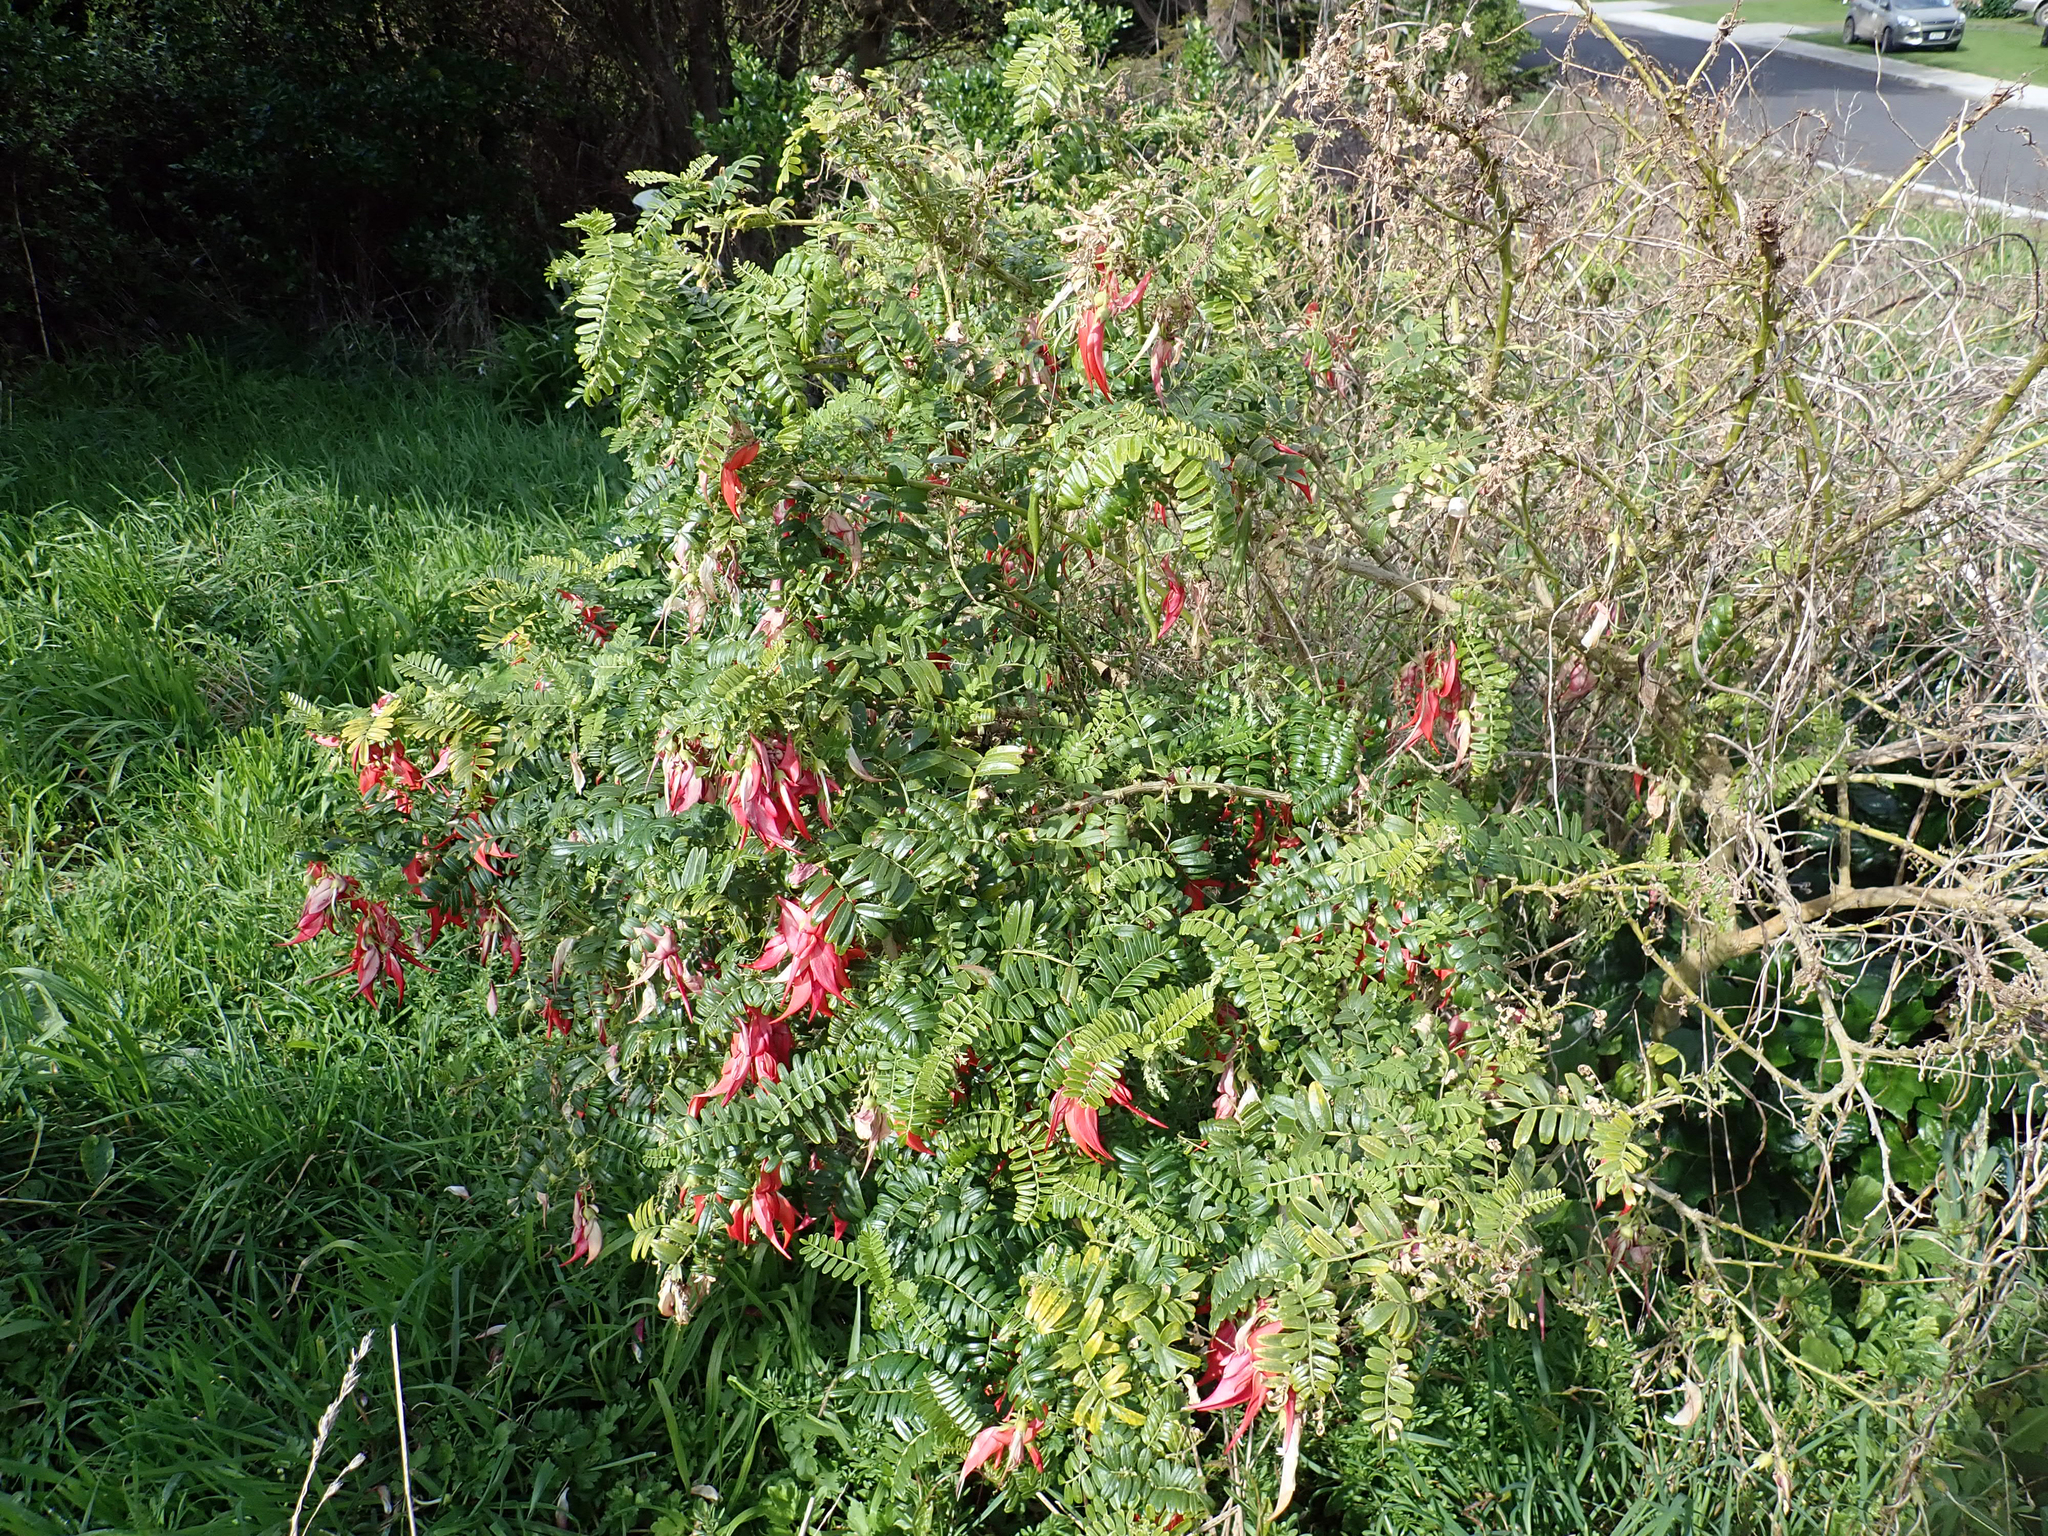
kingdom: Plantae
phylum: Tracheophyta
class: Magnoliopsida
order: Fabales
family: Fabaceae
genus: Clianthus
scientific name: Clianthus magnificus
